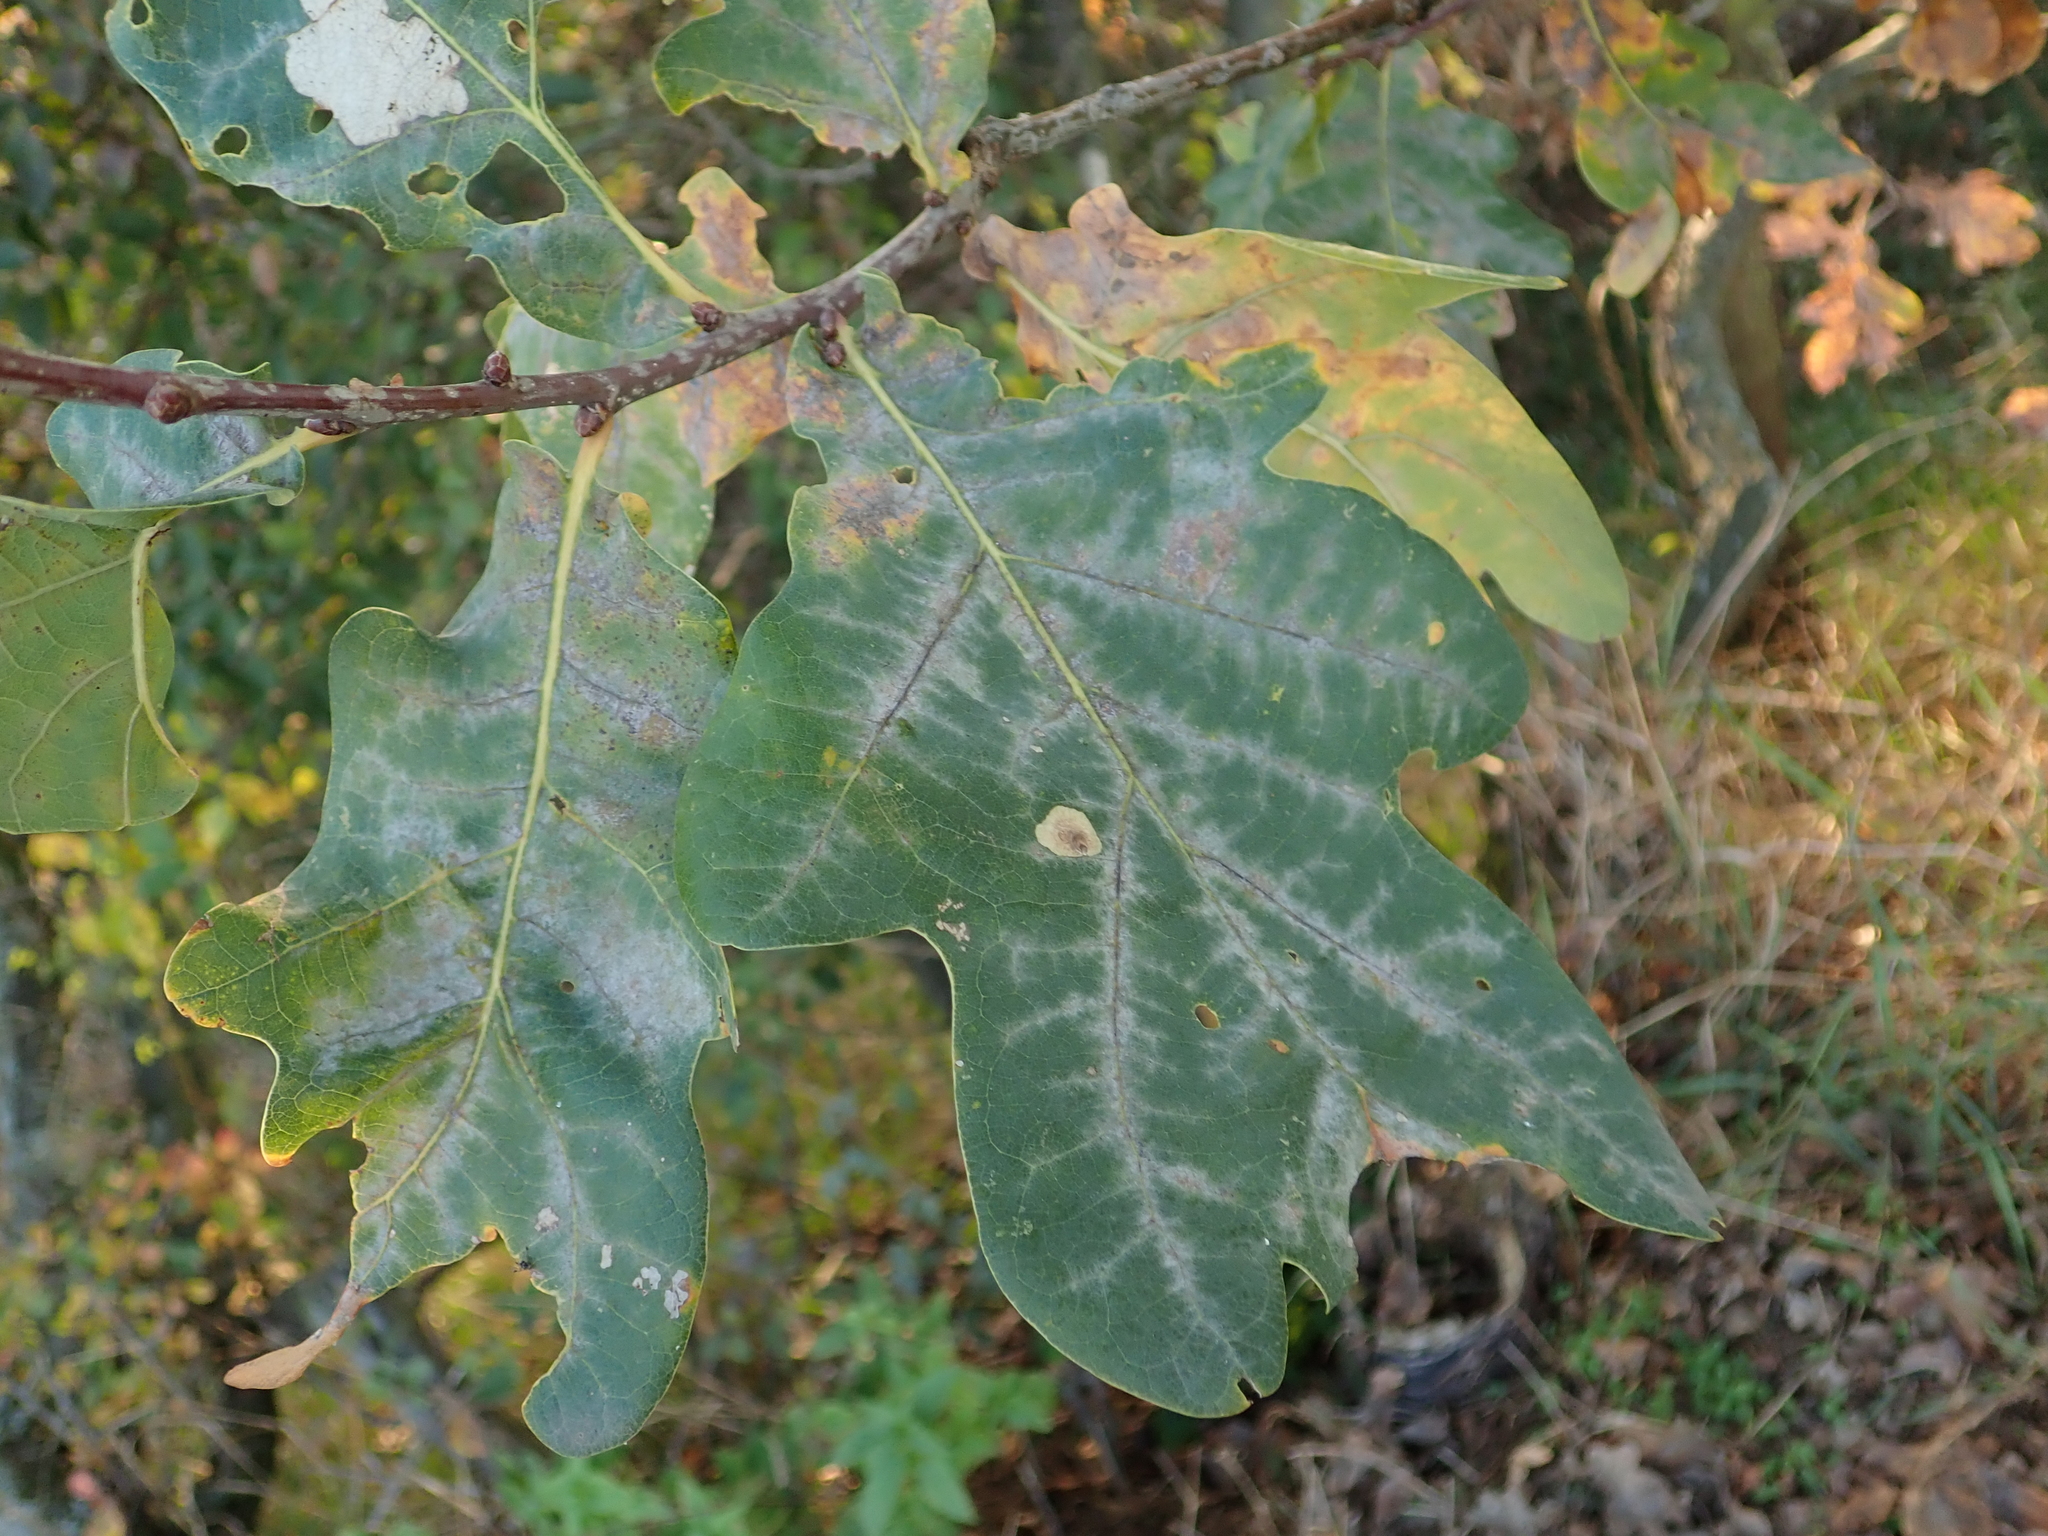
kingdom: Plantae
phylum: Tracheophyta
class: Magnoliopsida
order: Fagales
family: Fagaceae
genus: Quercus
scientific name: Quercus robur
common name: Pedunculate oak
